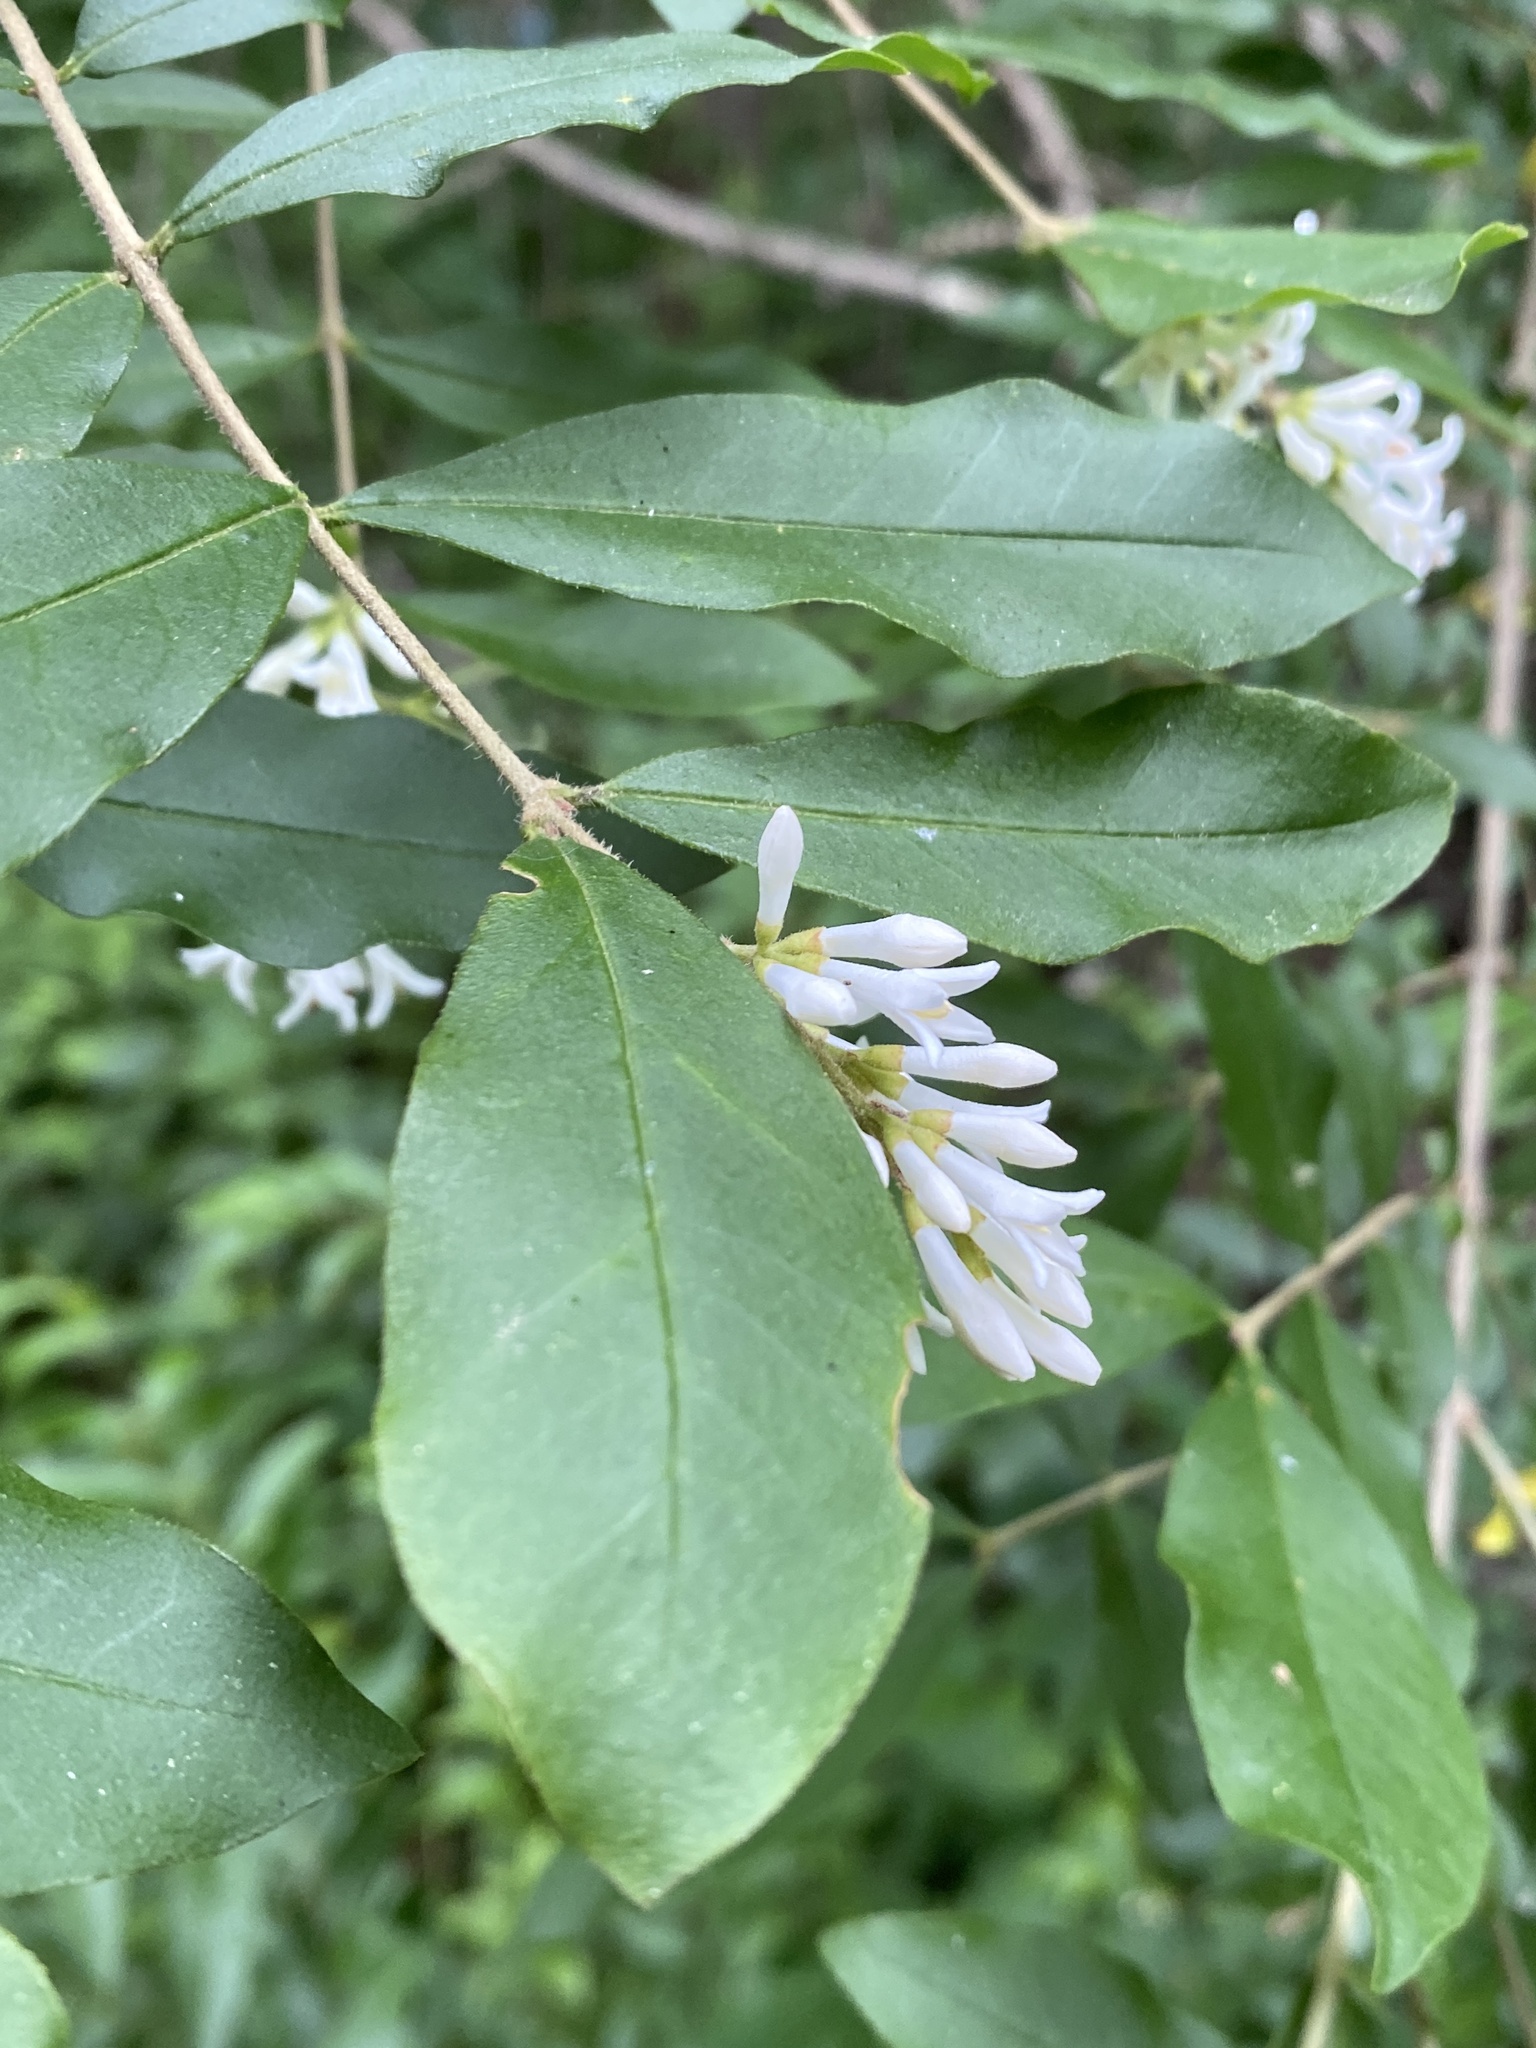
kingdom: Plantae
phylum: Tracheophyta
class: Magnoliopsida
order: Lamiales
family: Oleaceae
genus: Ligustrum
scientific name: Ligustrum obtusifolium
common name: Border privet
